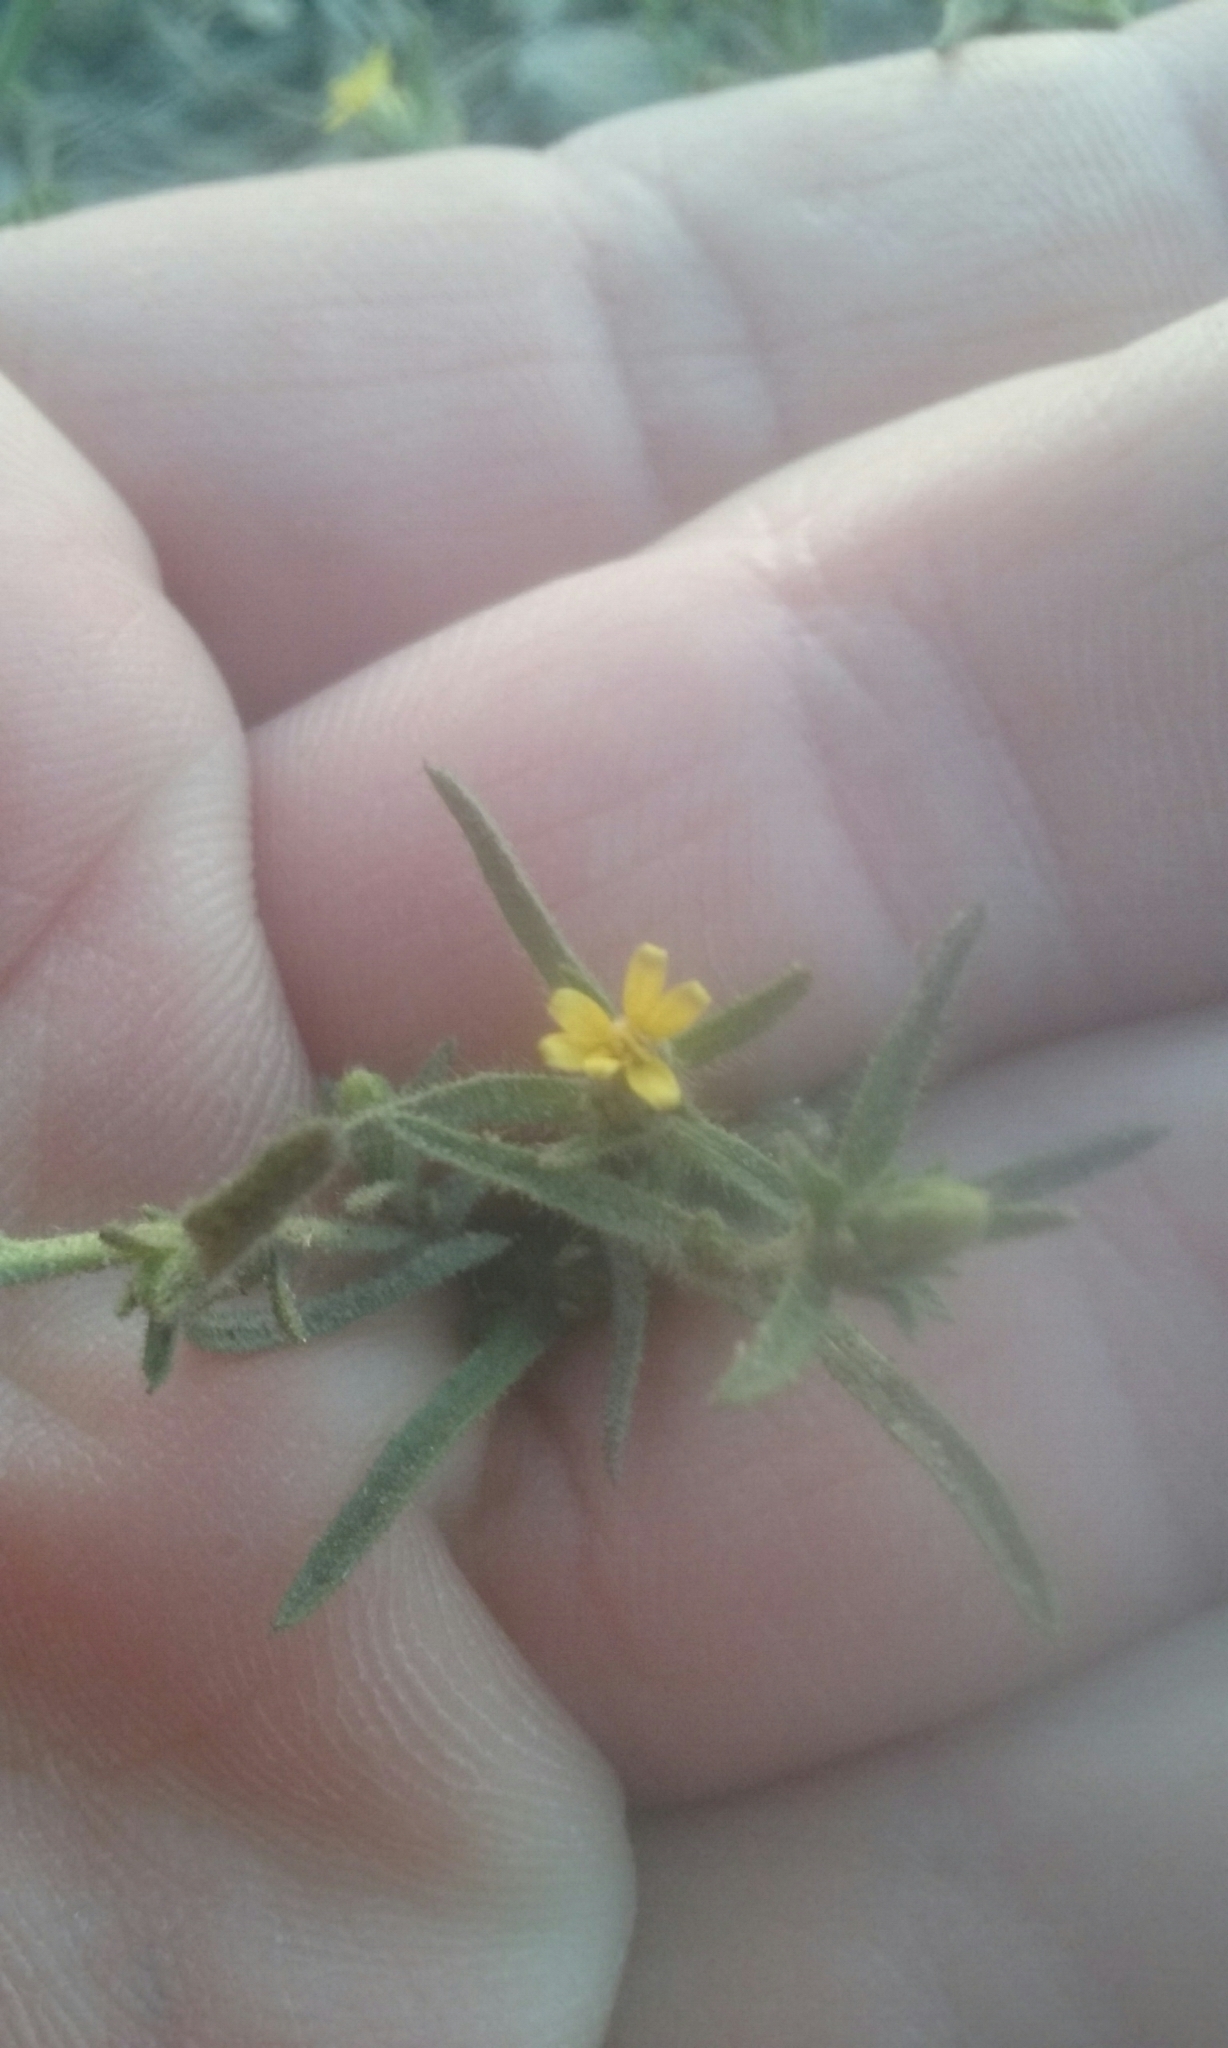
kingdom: Plantae
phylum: Tracheophyta
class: Magnoliopsida
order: Asterales
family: Asteraceae
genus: Dittrichia
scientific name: Dittrichia graveolens
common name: Stinking fleabane
